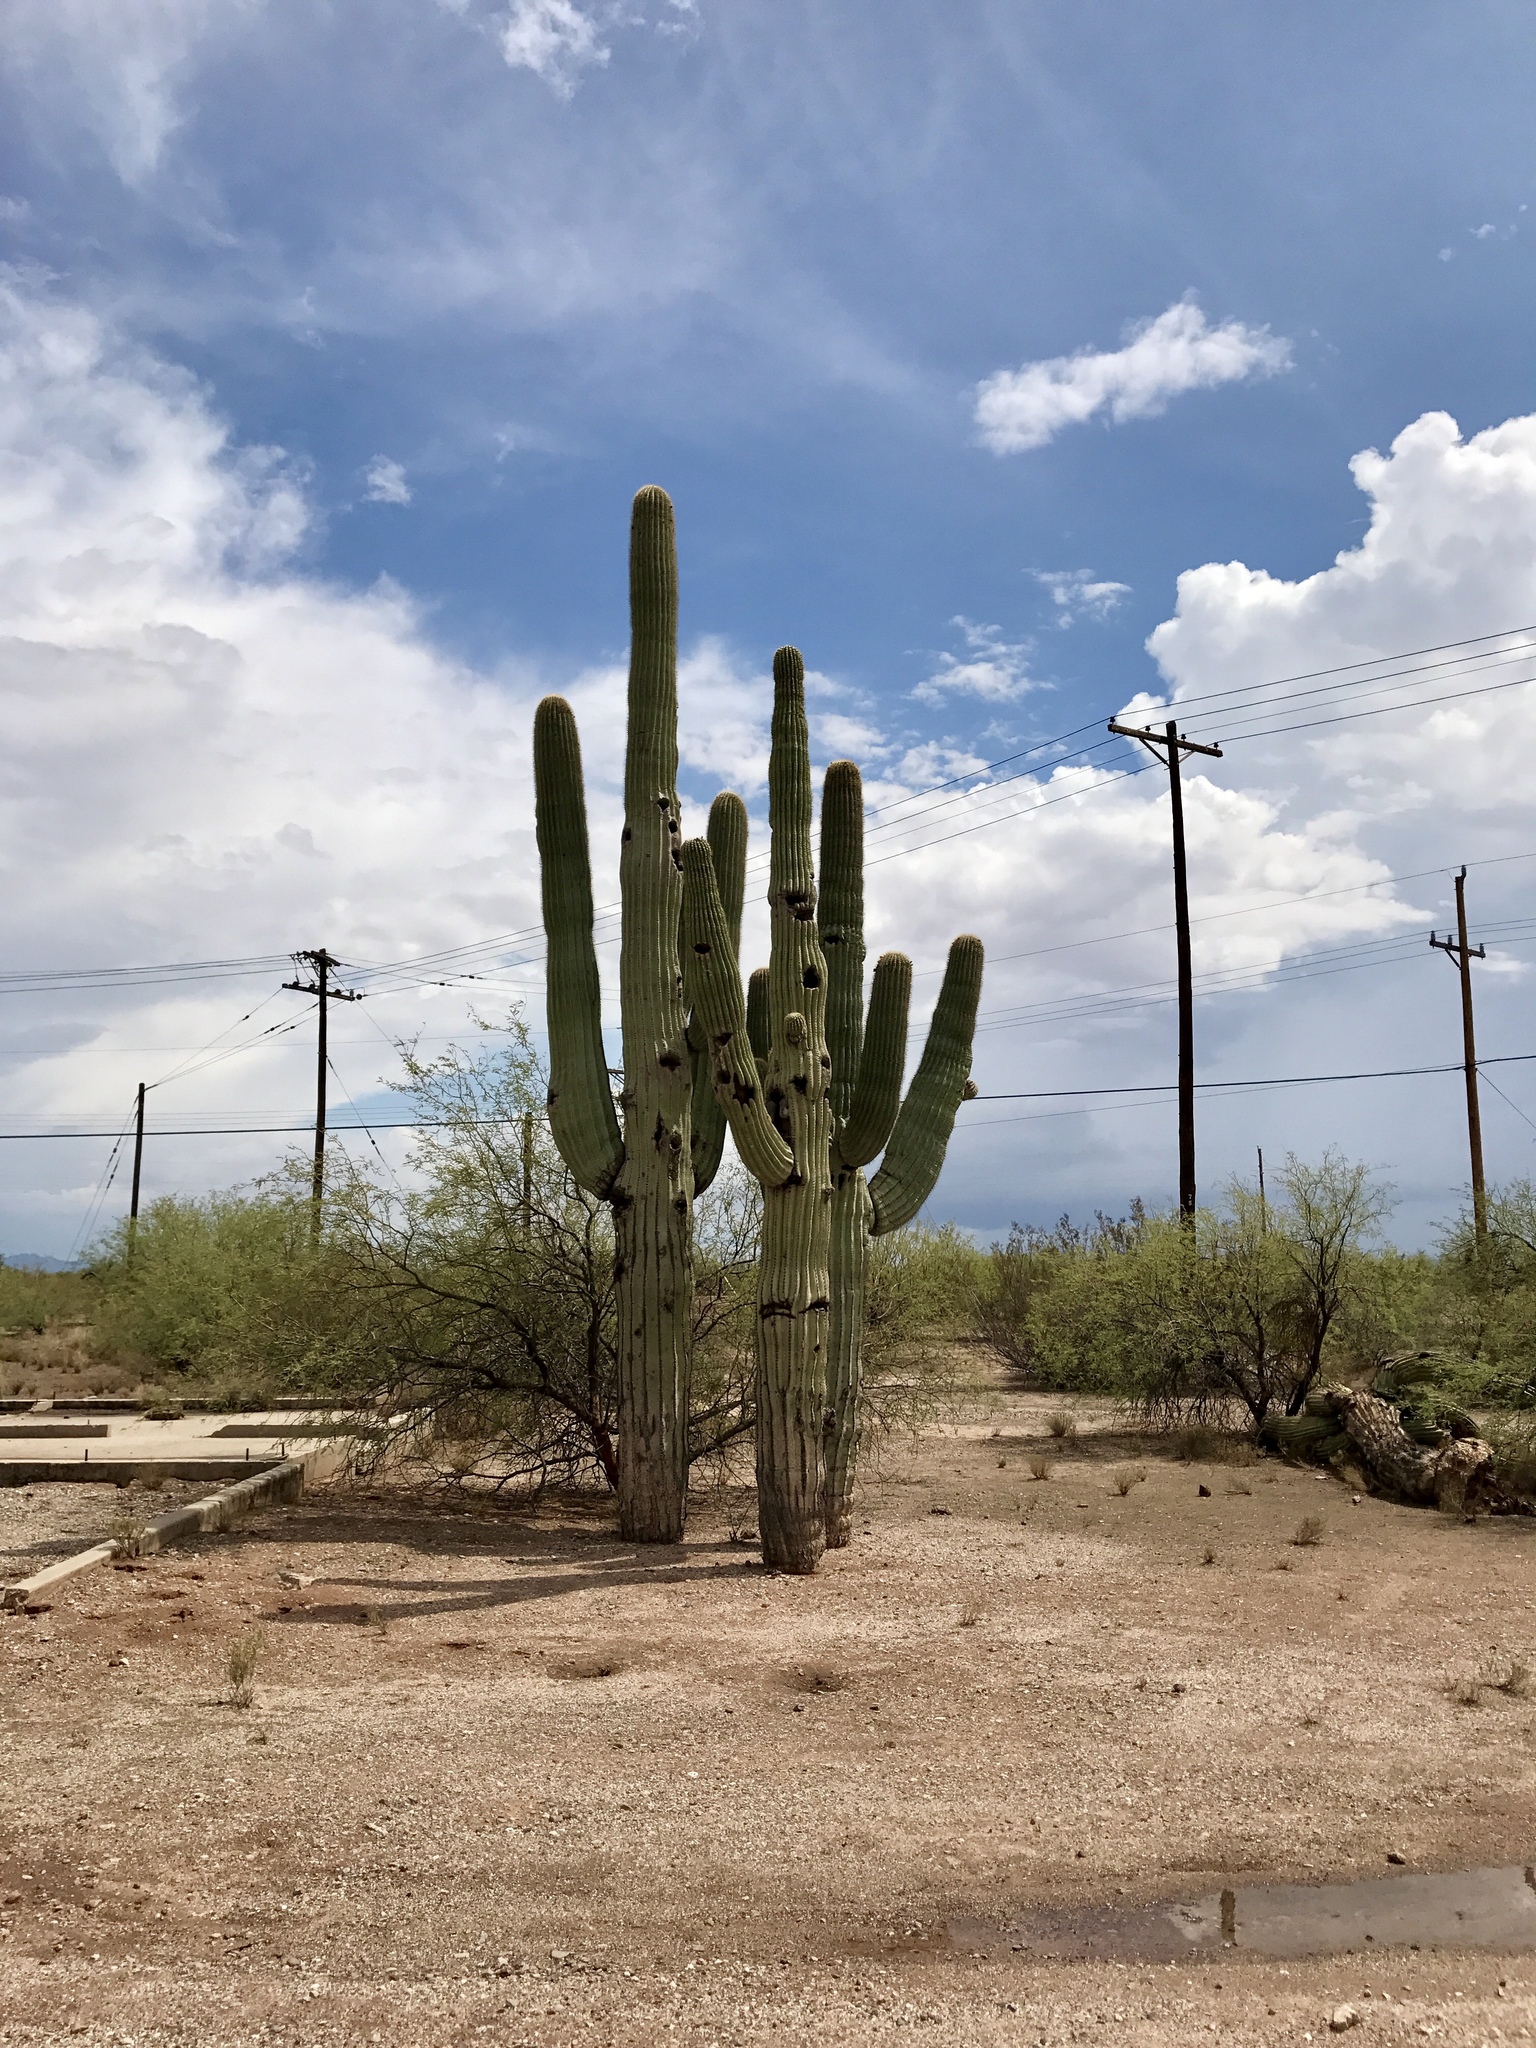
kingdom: Plantae
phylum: Tracheophyta
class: Magnoliopsida
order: Caryophyllales
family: Cactaceae
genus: Carnegiea
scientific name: Carnegiea gigantea
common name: Saguaro
